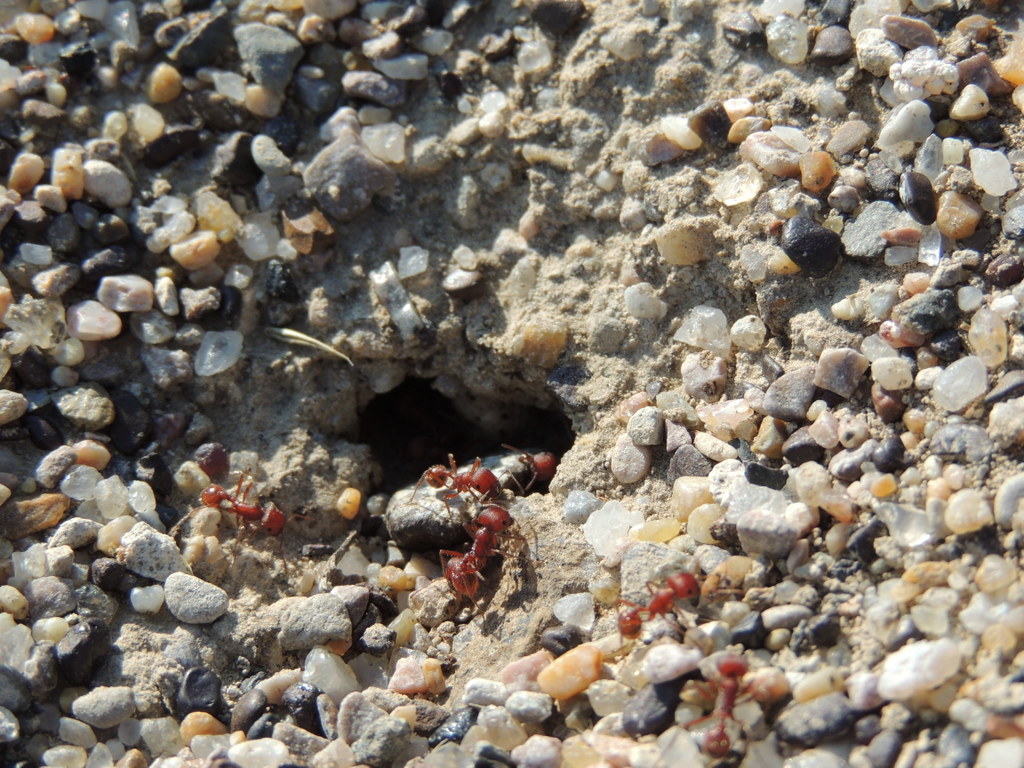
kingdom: Animalia
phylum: Arthropoda
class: Insecta
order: Hymenoptera
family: Formicidae
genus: Pogonomyrmex
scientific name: Pogonomyrmex occidentalis
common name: Western harvester ant
